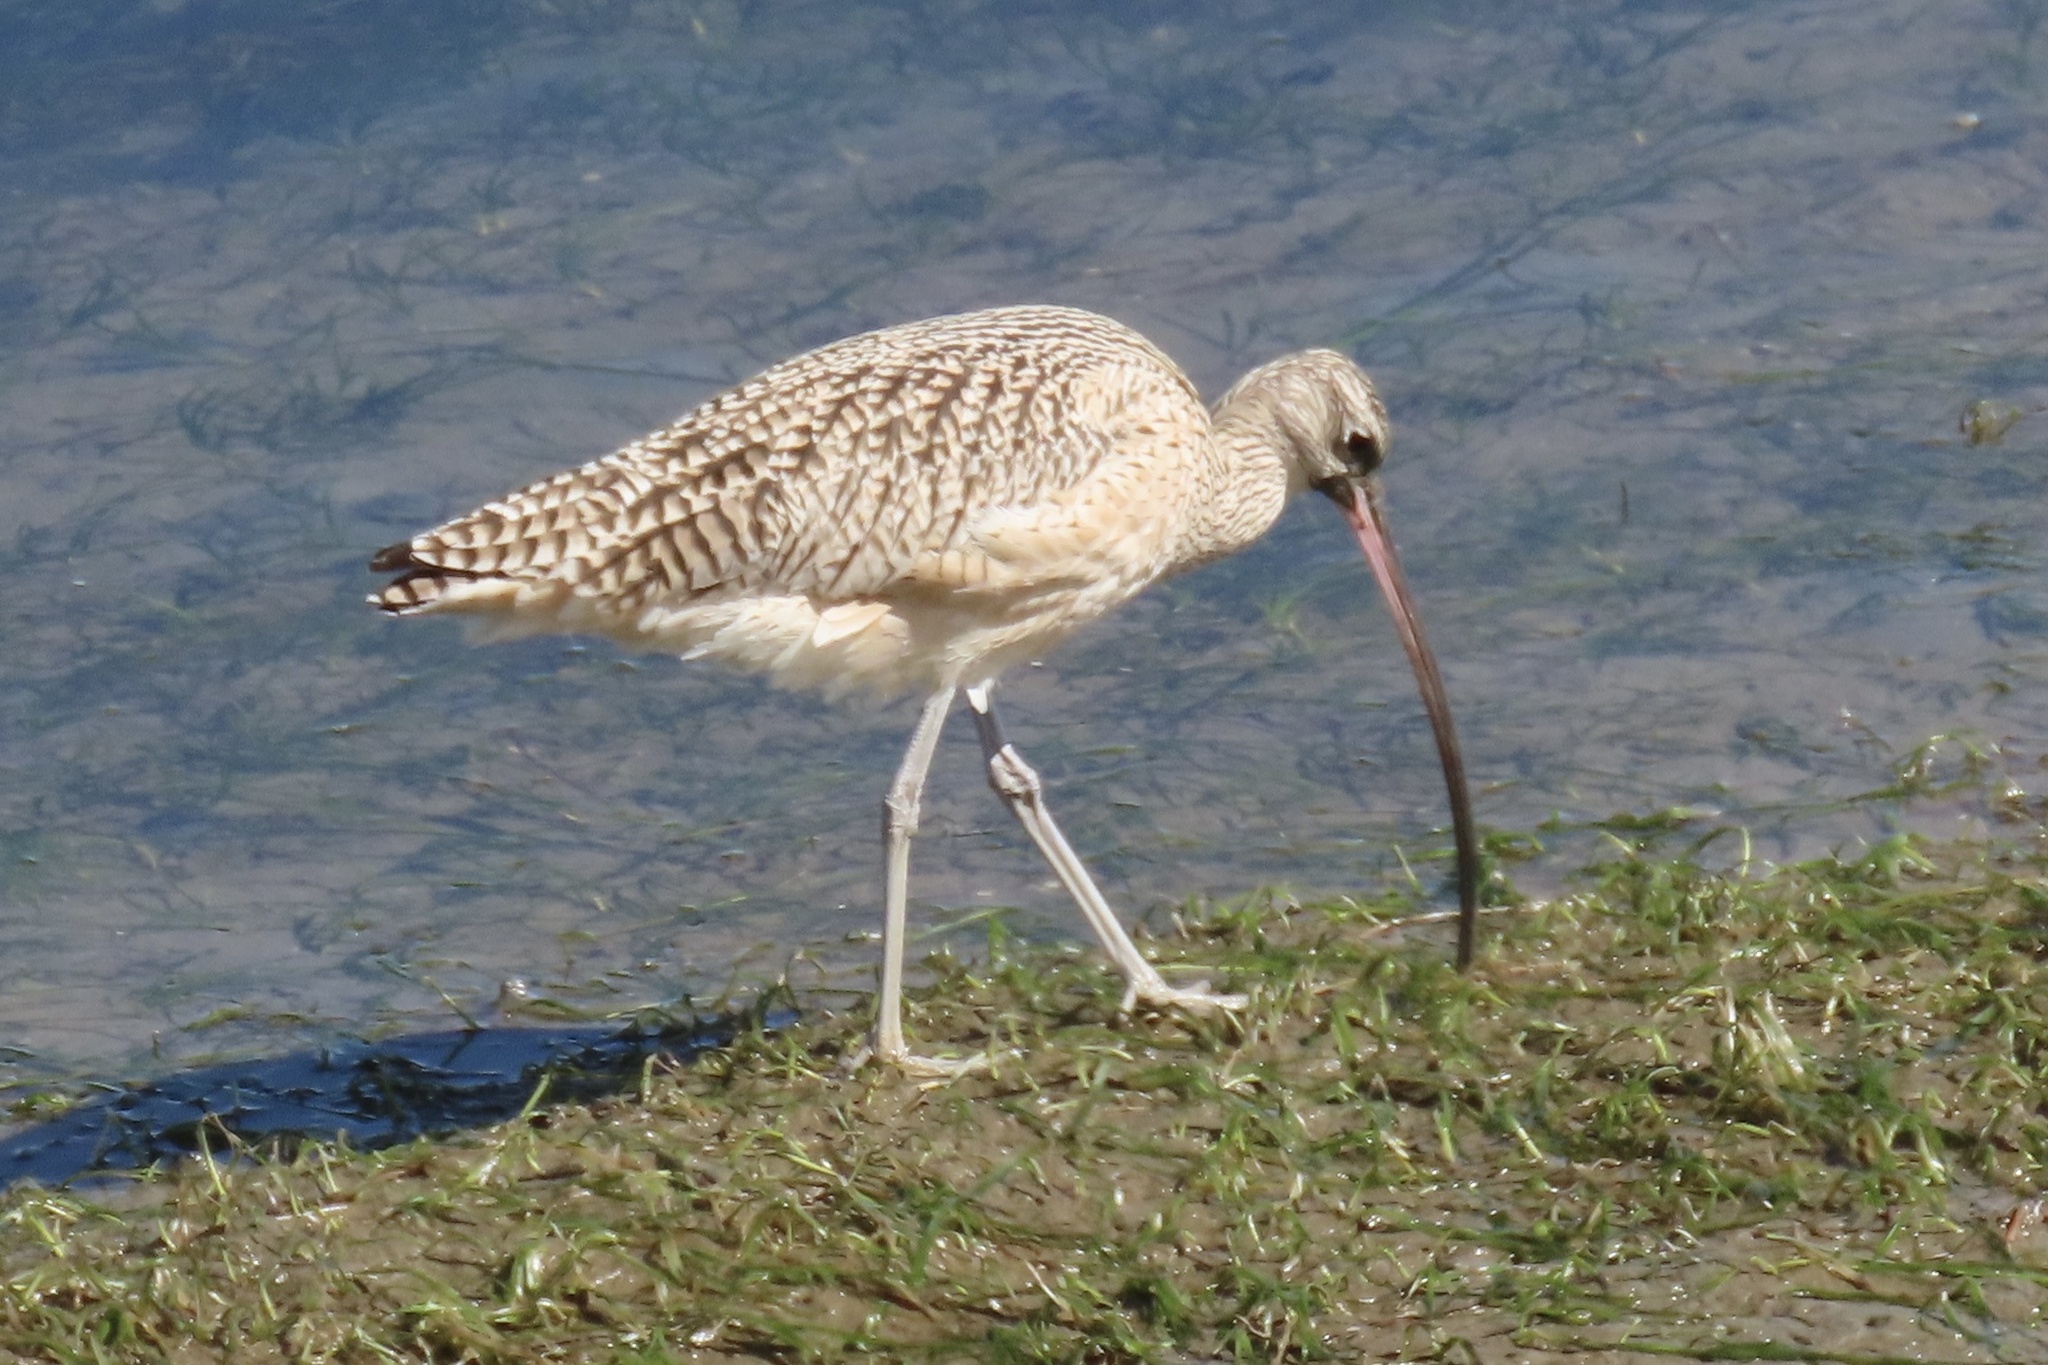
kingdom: Animalia
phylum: Chordata
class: Aves
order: Charadriiformes
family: Scolopacidae
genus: Numenius
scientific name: Numenius americanus
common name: Long-billed curlew
